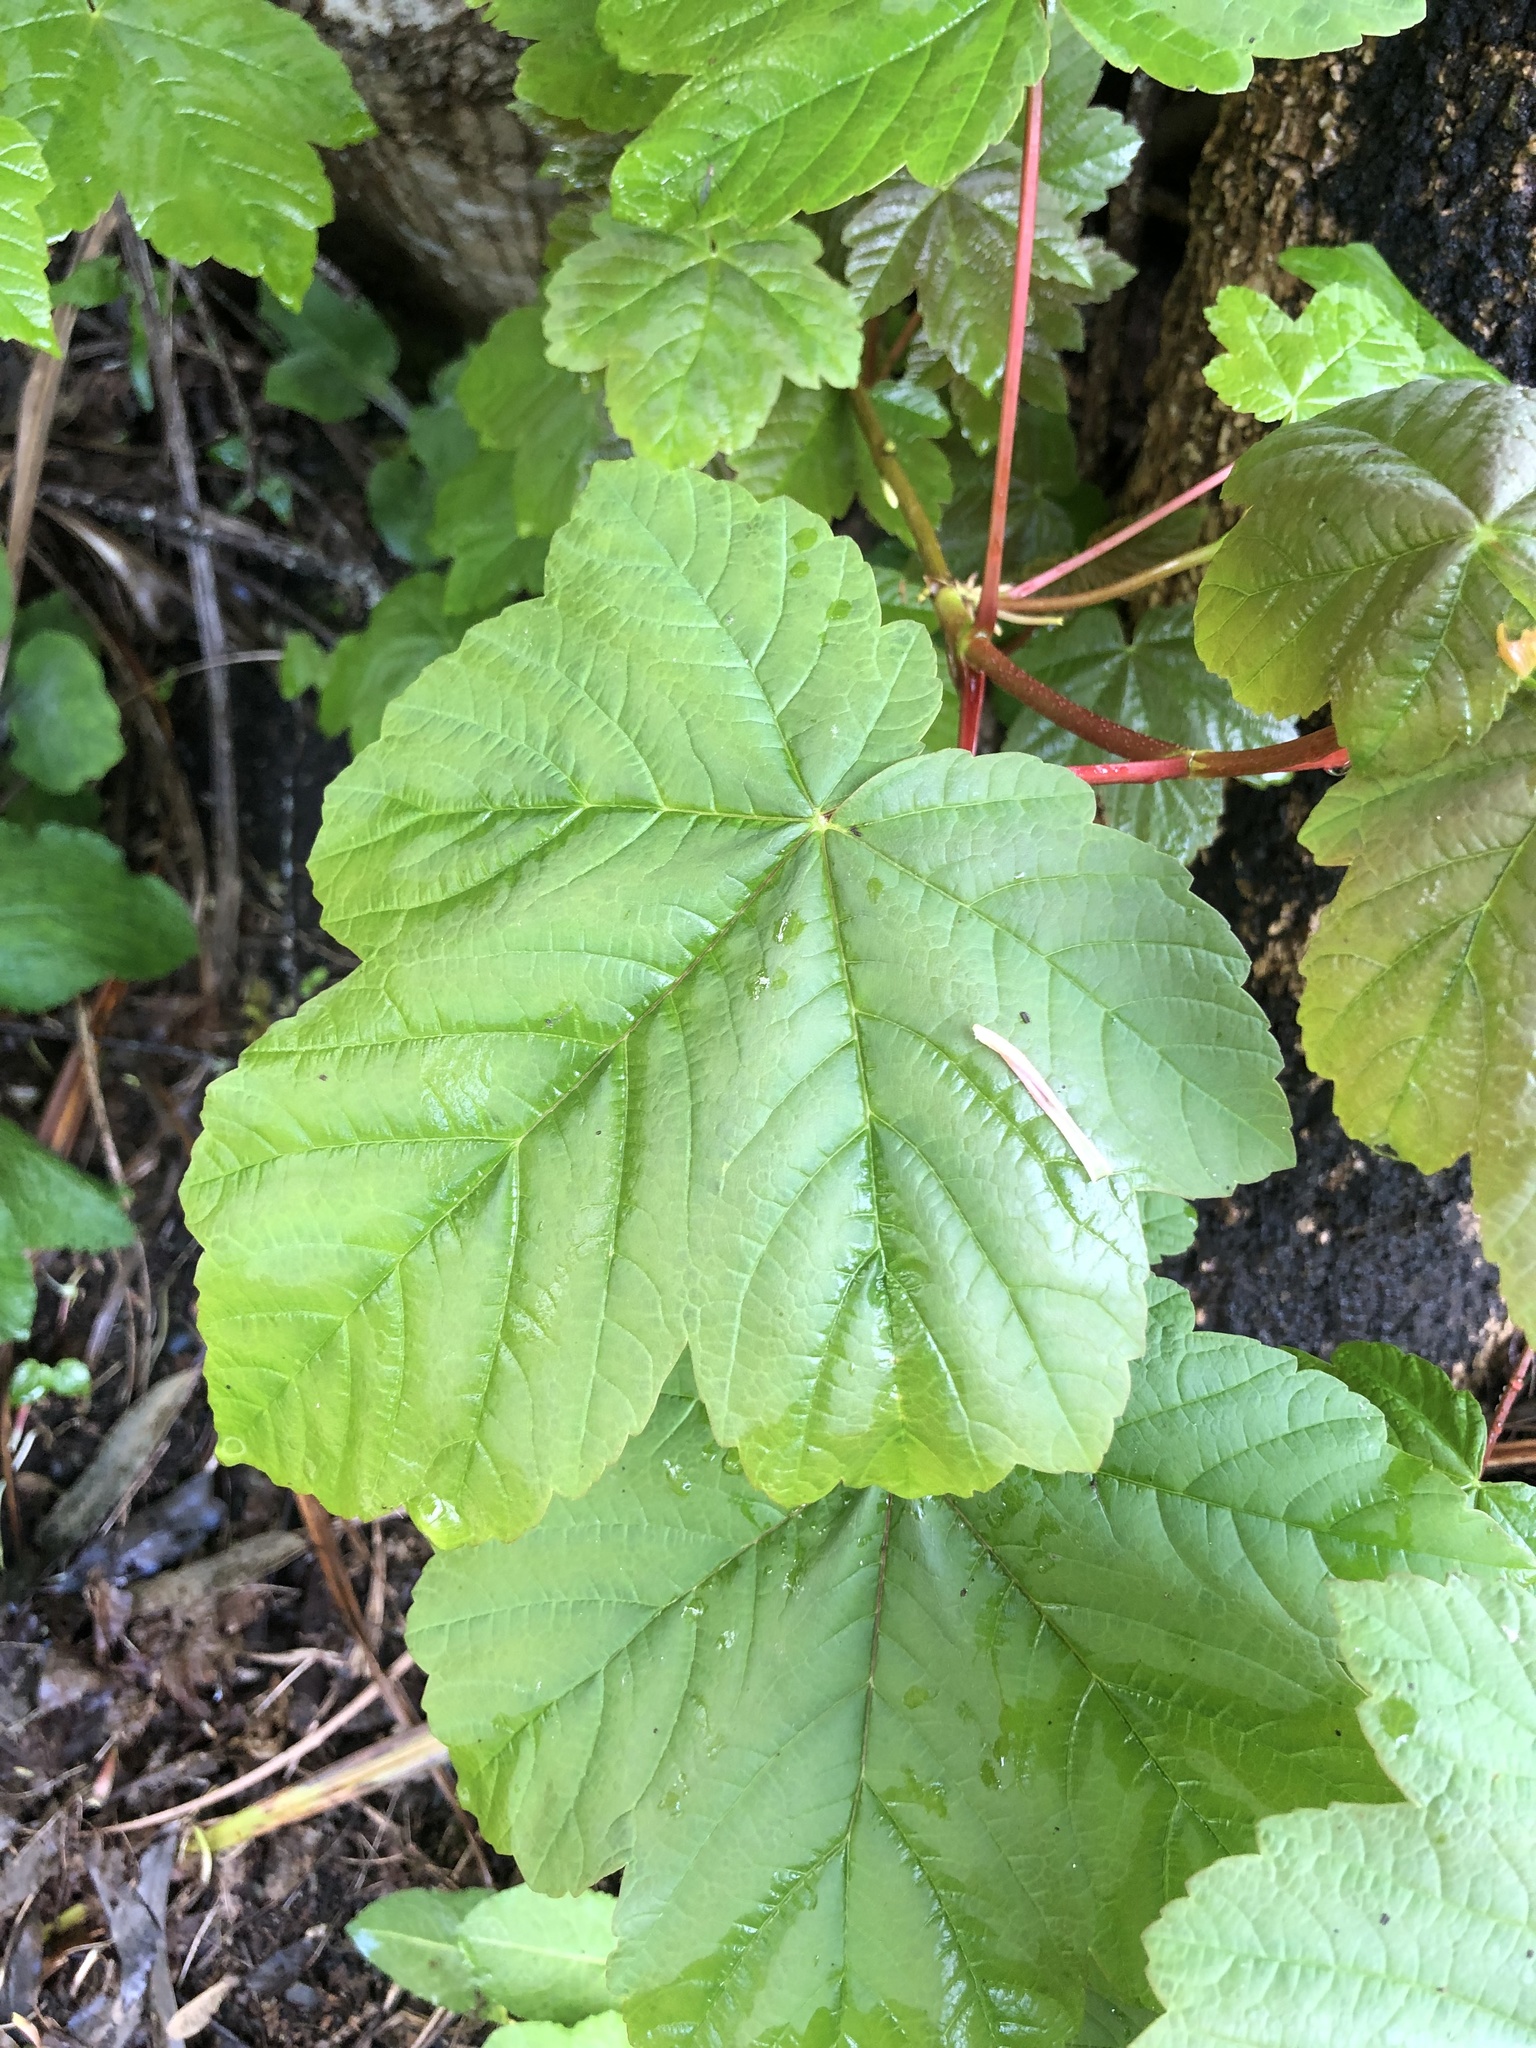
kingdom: Plantae
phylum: Tracheophyta
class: Magnoliopsida
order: Sapindales
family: Sapindaceae
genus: Acer
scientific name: Acer pseudoplatanus
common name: Sycamore
